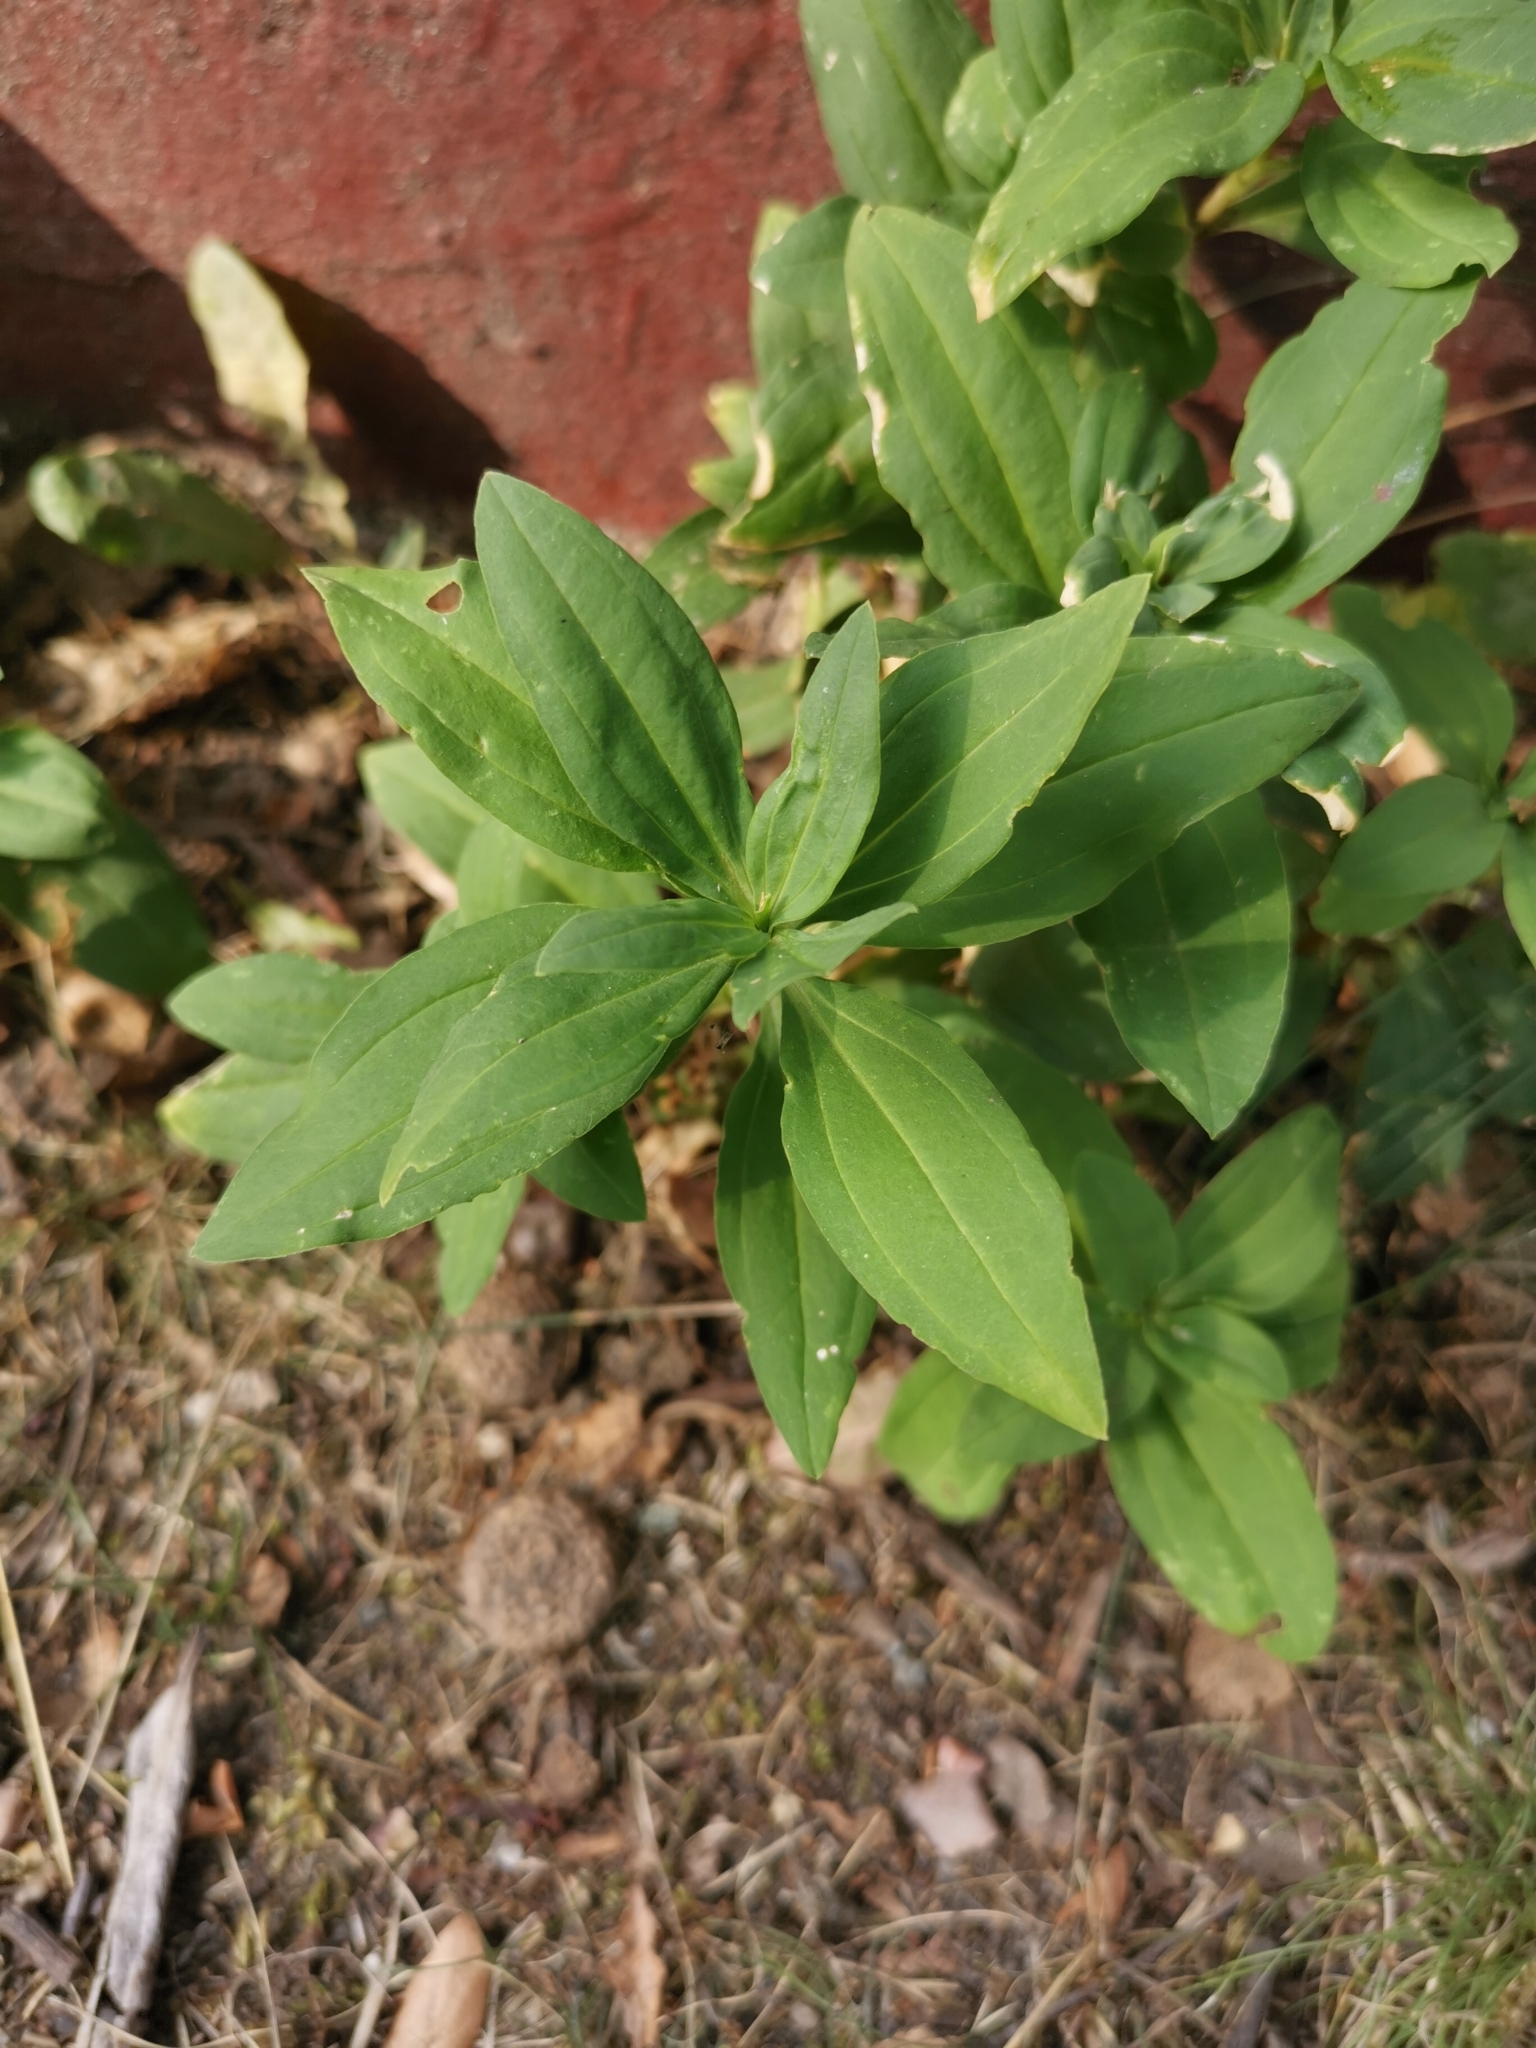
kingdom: Plantae
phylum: Tracheophyta
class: Magnoliopsida
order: Caryophyllales
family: Caryophyllaceae
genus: Saponaria
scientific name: Saponaria officinalis
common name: Soapwort
